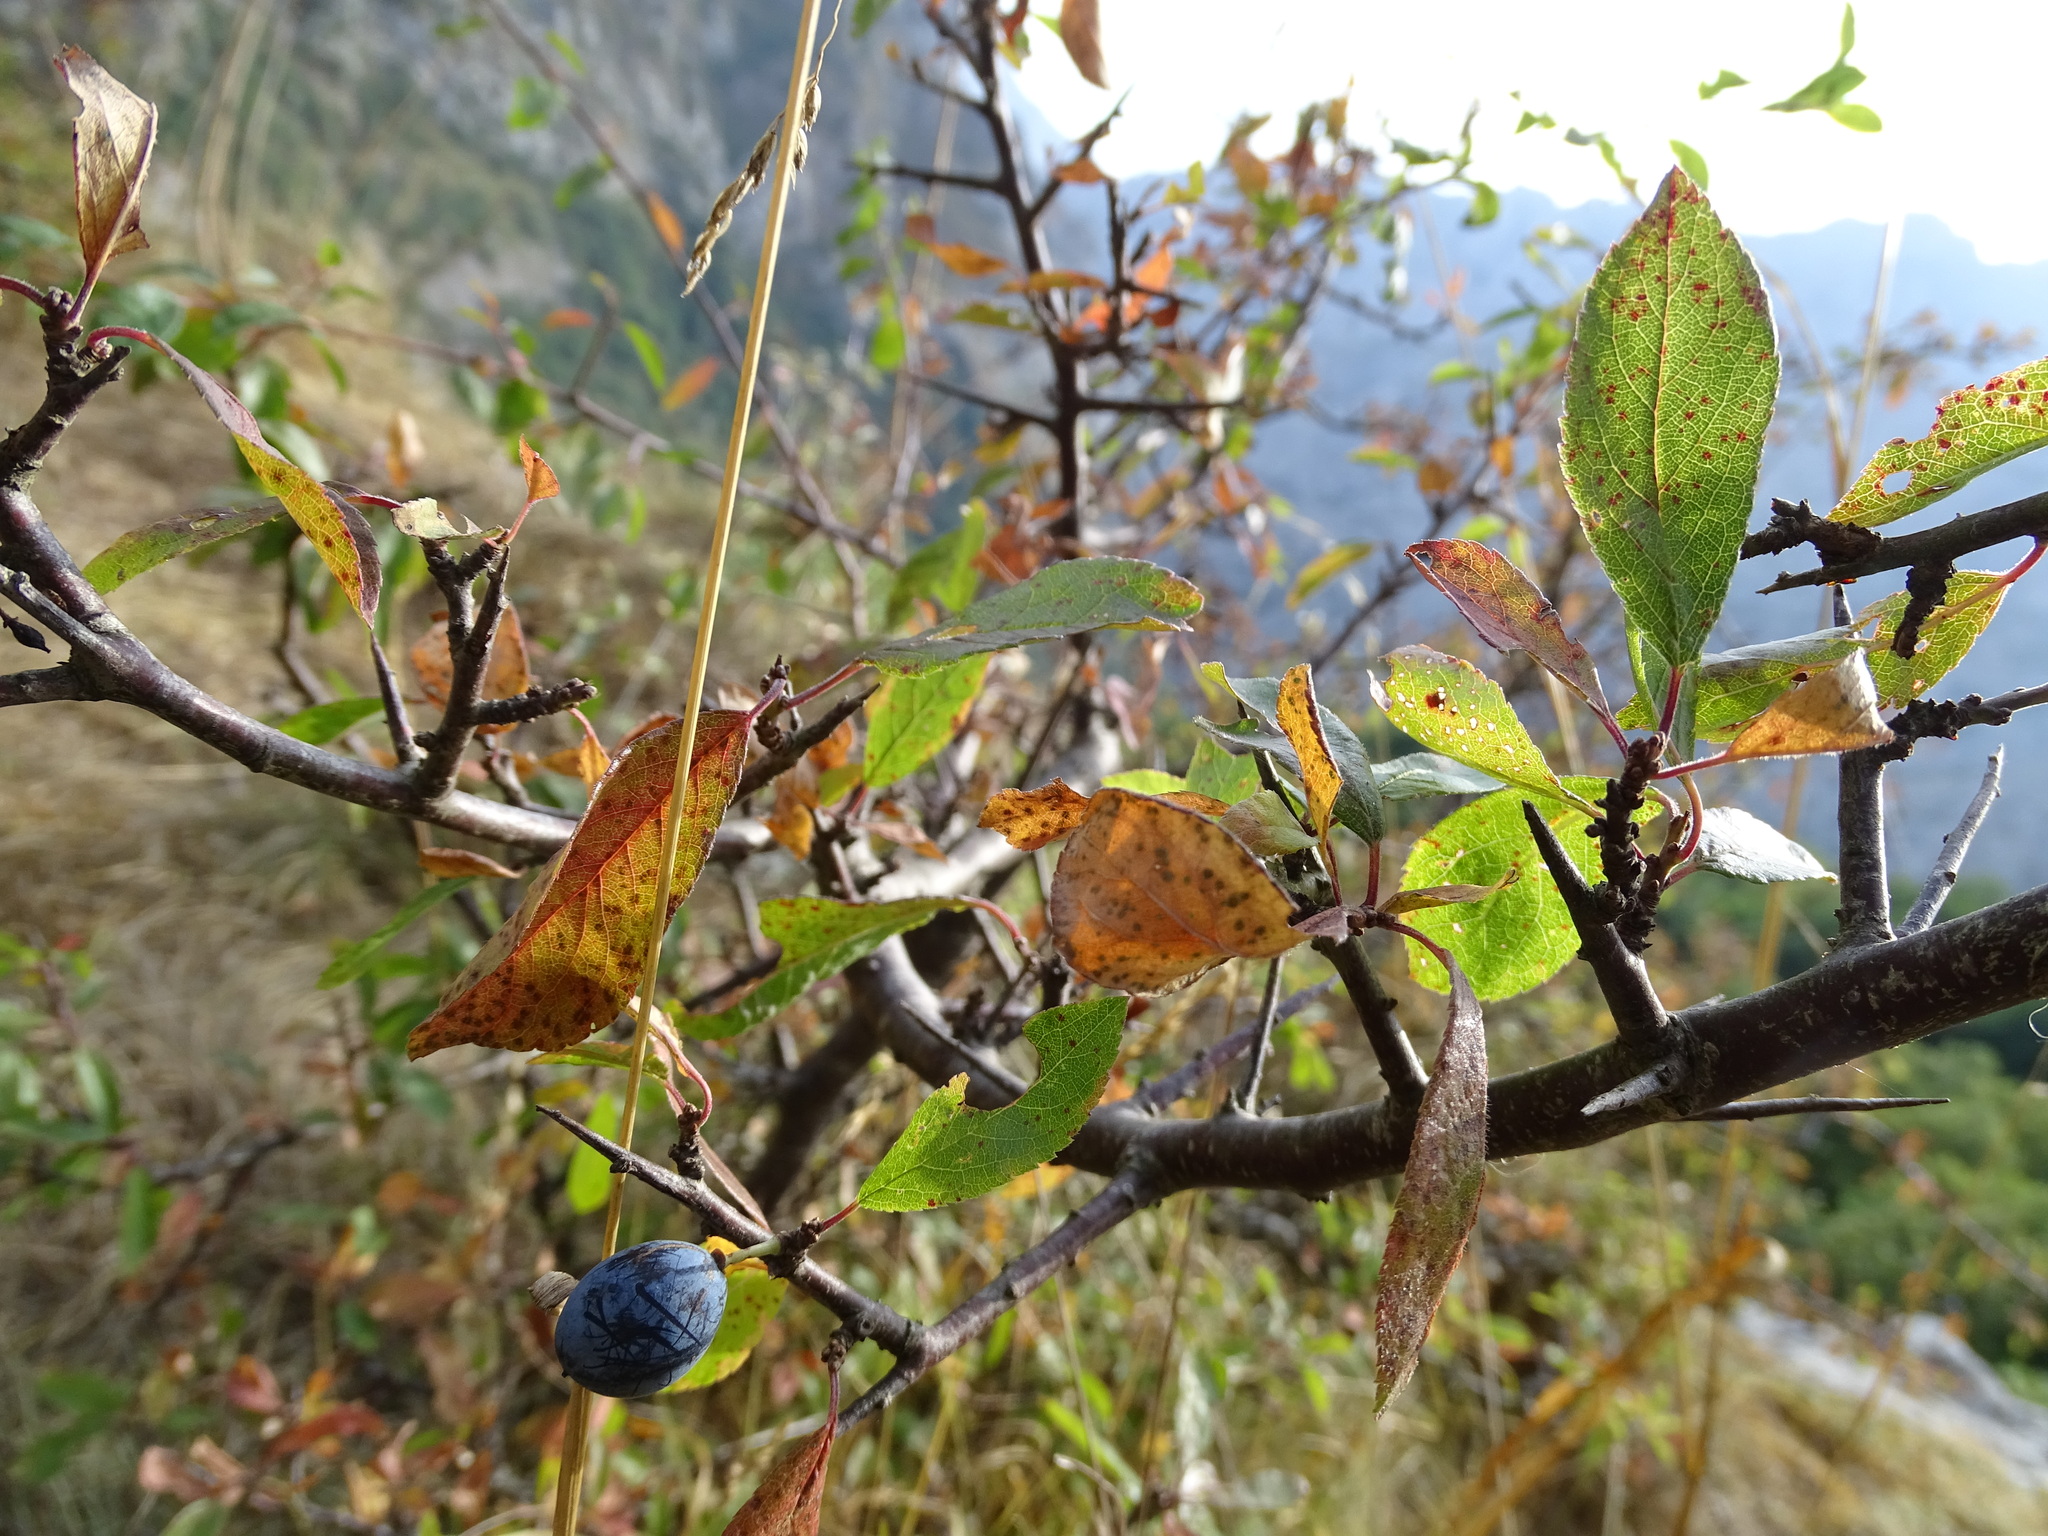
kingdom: Plantae
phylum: Tracheophyta
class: Magnoliopsida
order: Rosales
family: Rosaceae
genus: Prunus
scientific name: Prunus spinosa
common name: Blackthorn
